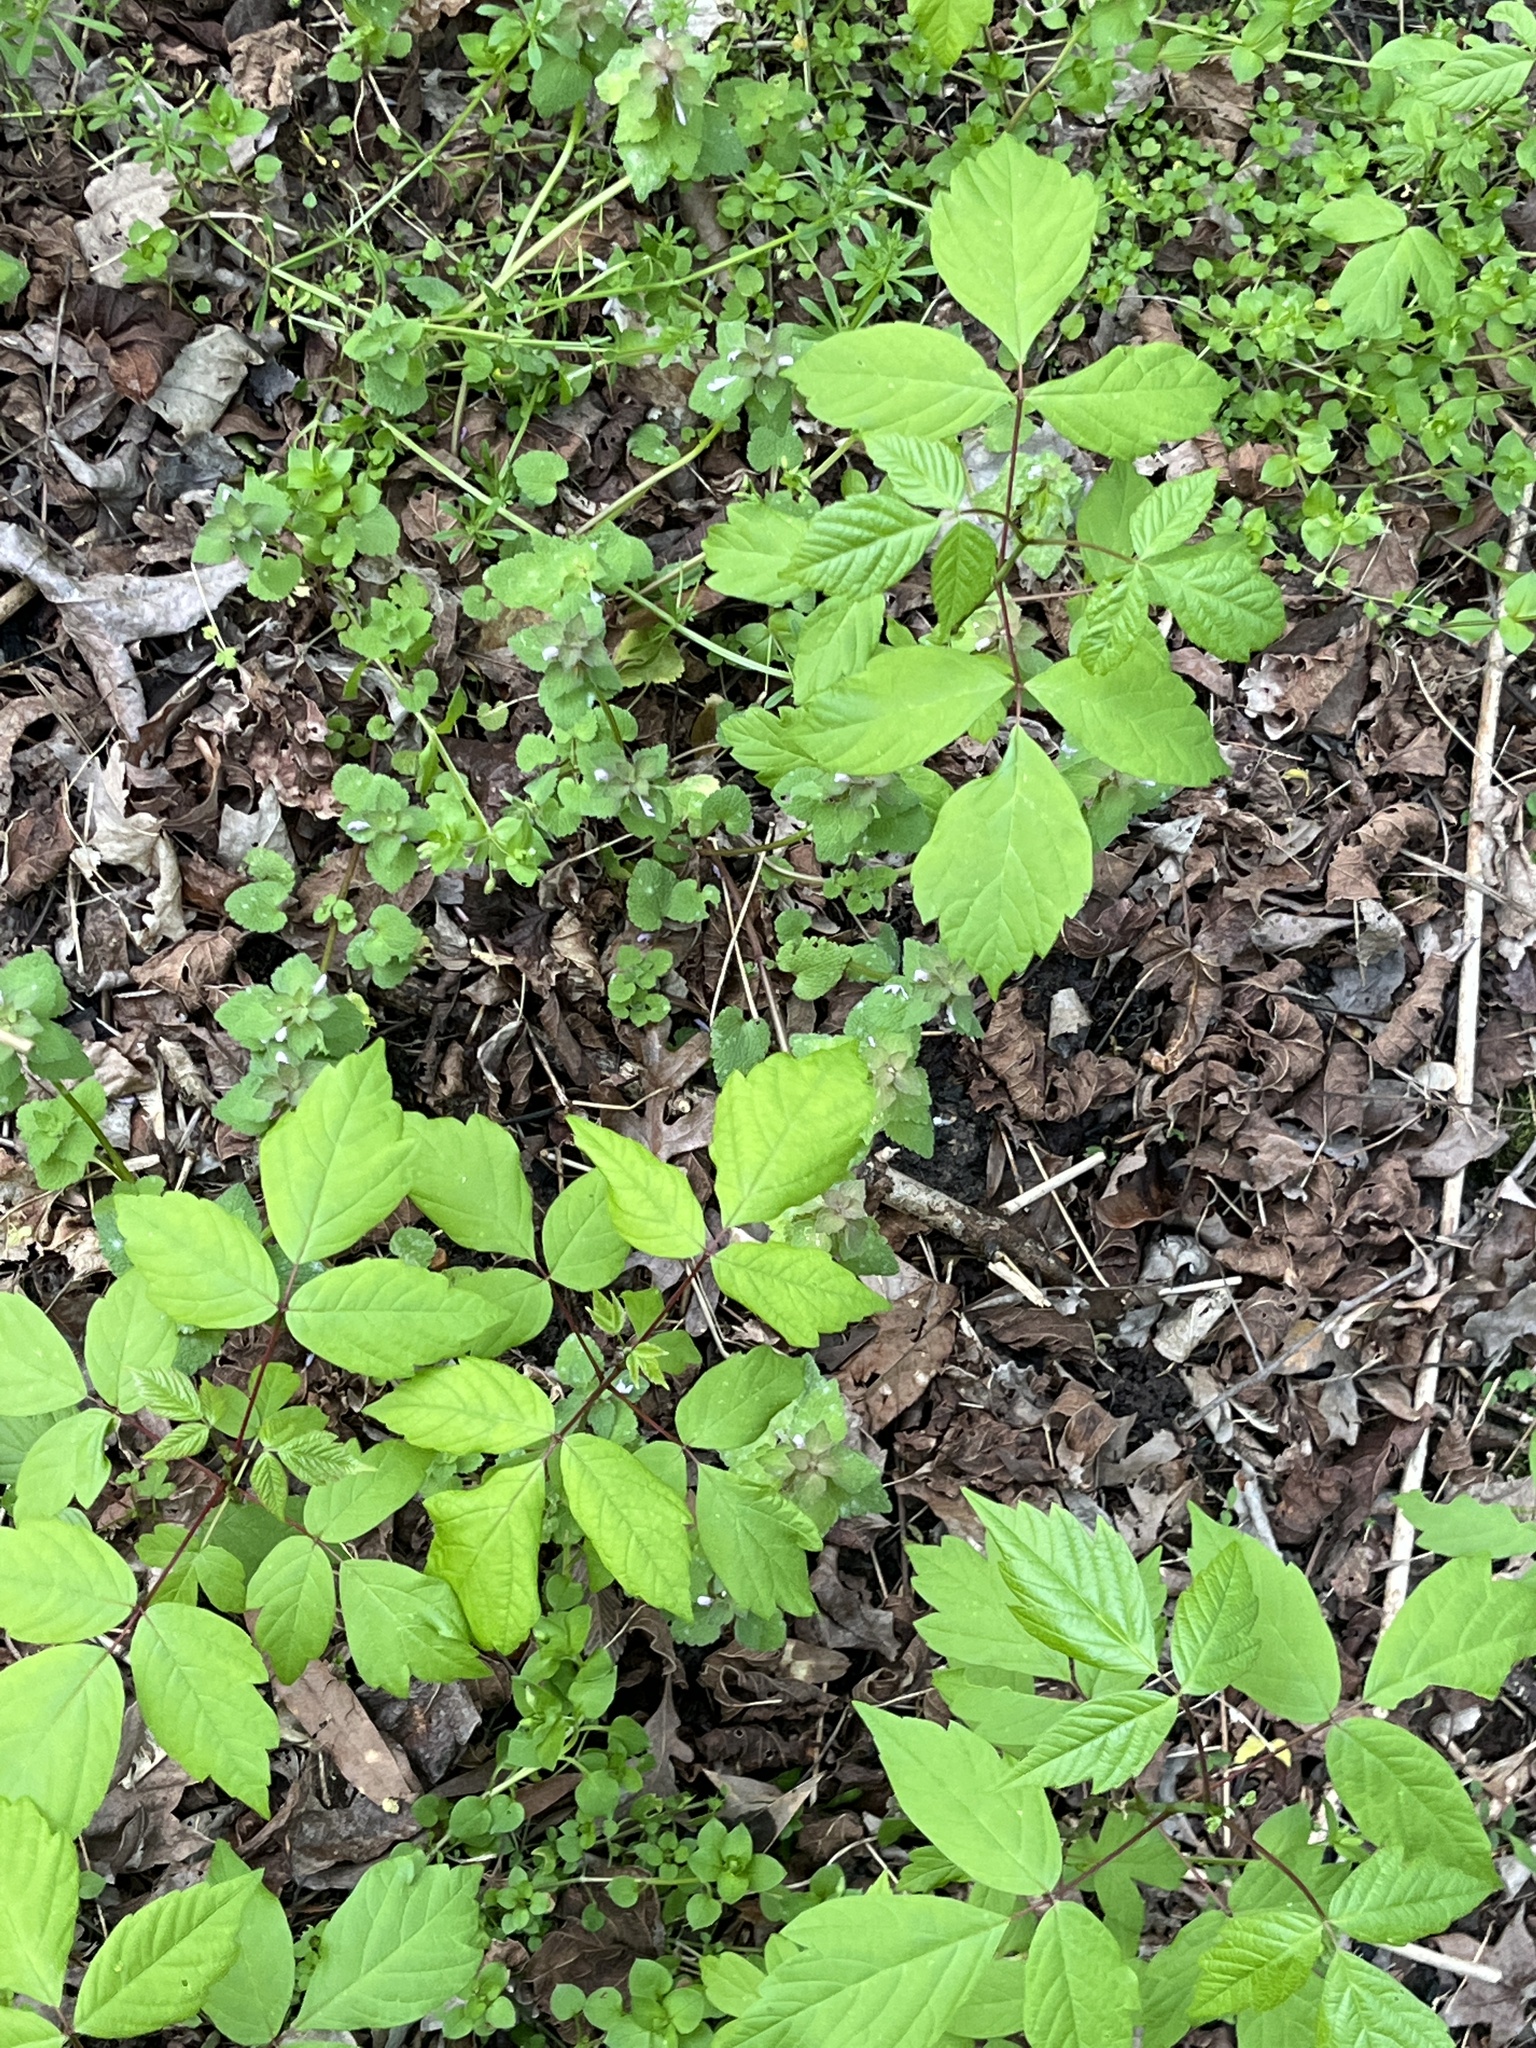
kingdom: Plantae
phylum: Tracheophyta
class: Magnoliopsida
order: Sapindales
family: Sapindaceae
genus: Acer
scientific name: Acer negundo
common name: Ashleaf maple
